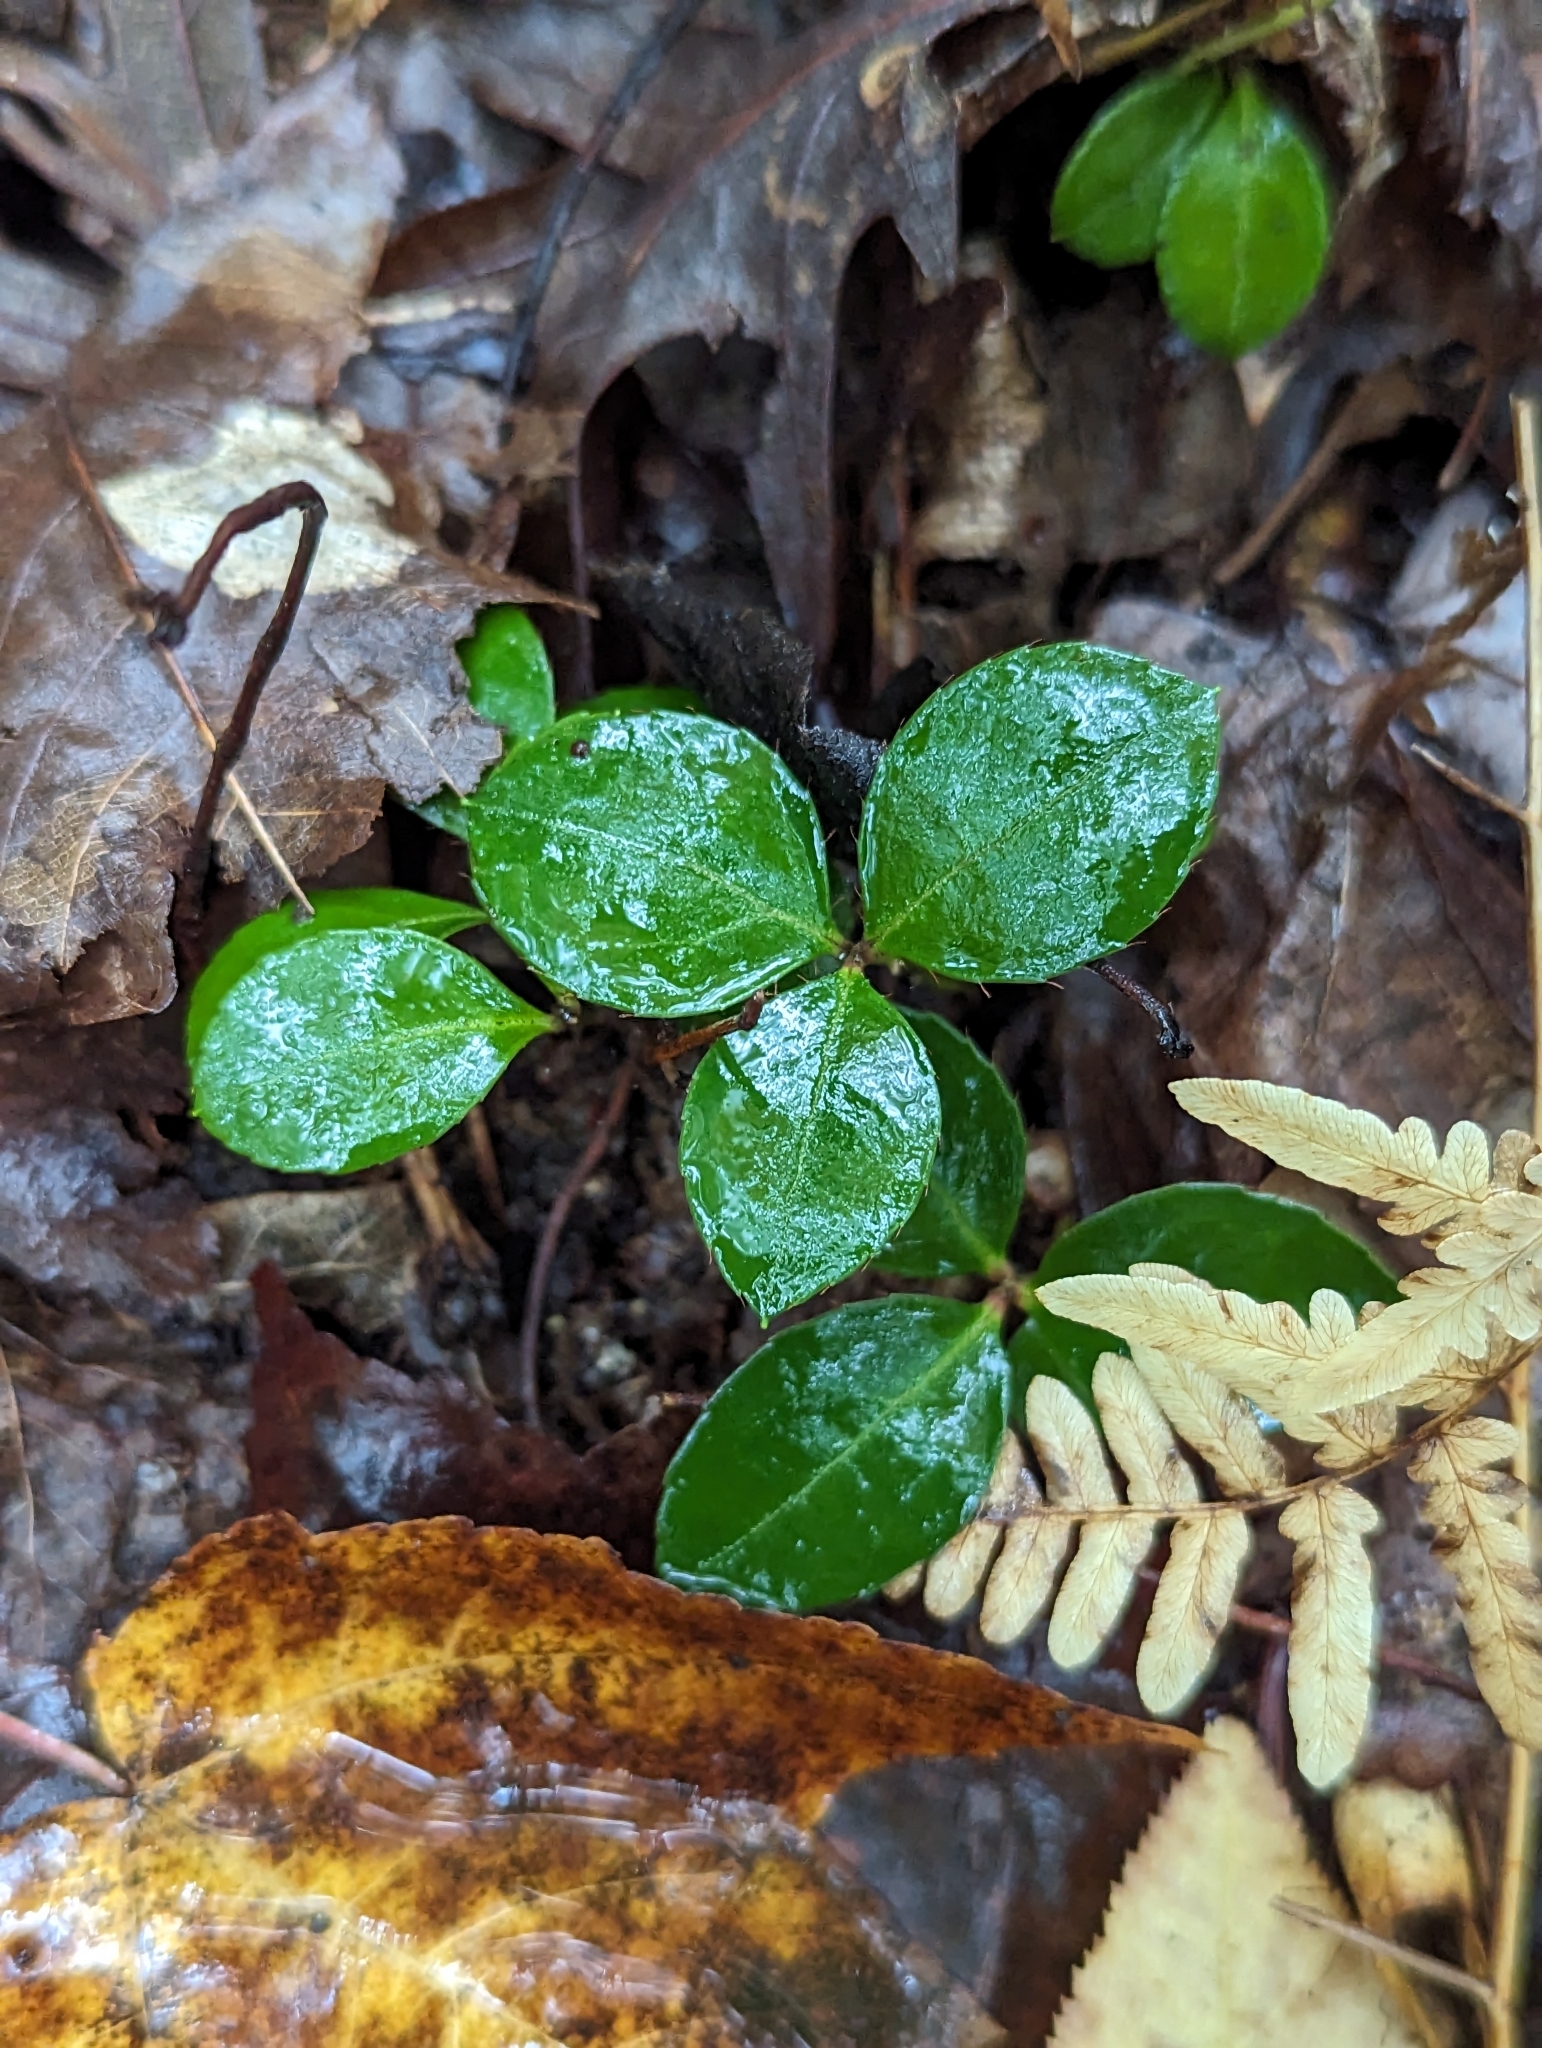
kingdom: Plantae
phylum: Tracheophyta
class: Magnoliopsida
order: Ericales
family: Ericaceae
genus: Gaultheria
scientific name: Gaultheria procumbens
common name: Checkerberry
